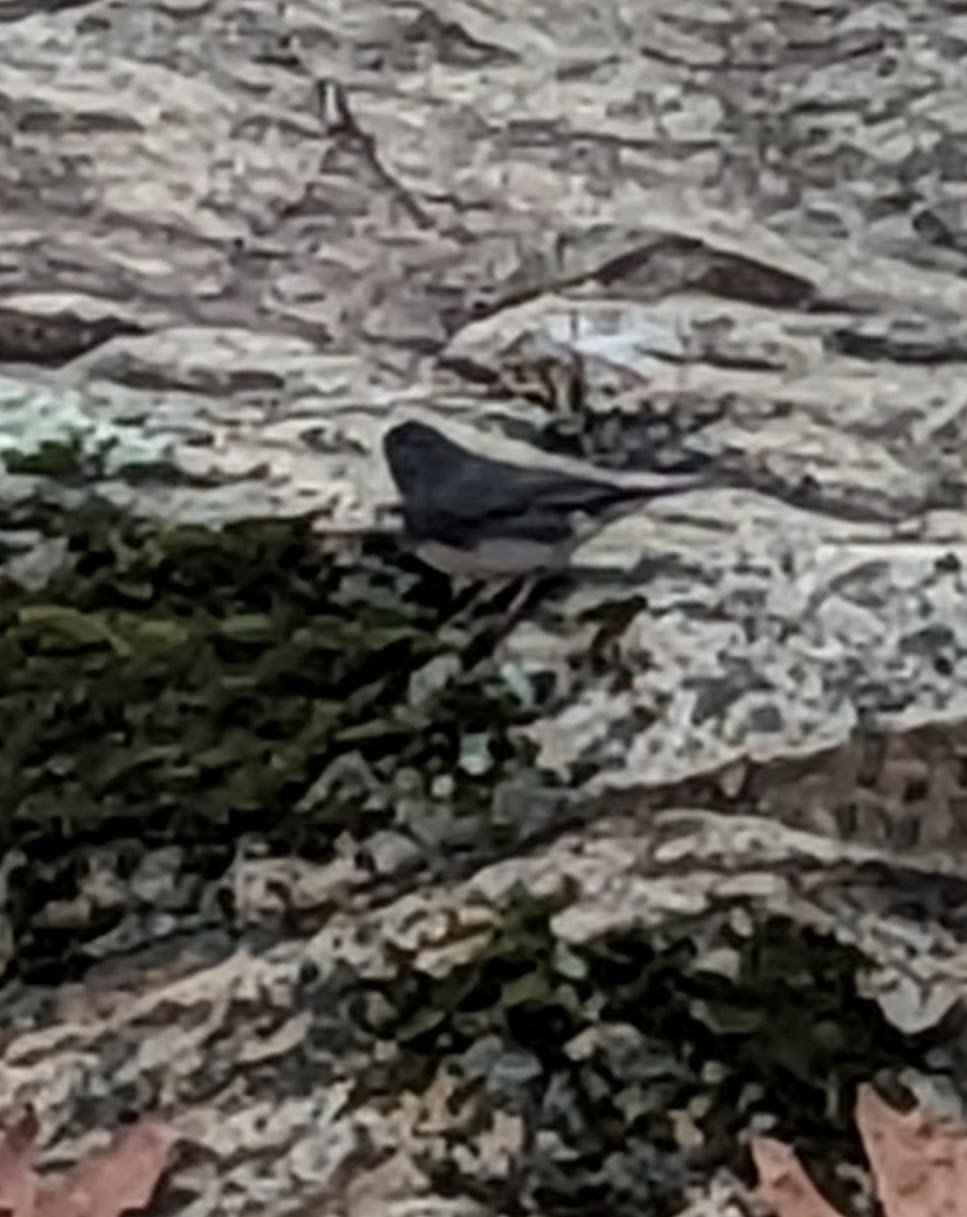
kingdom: Animalia
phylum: Chordata
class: Aves
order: Passeriformes
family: Passerellidae
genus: Junco
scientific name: Junco hyemalis
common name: Dark-eyed junco
